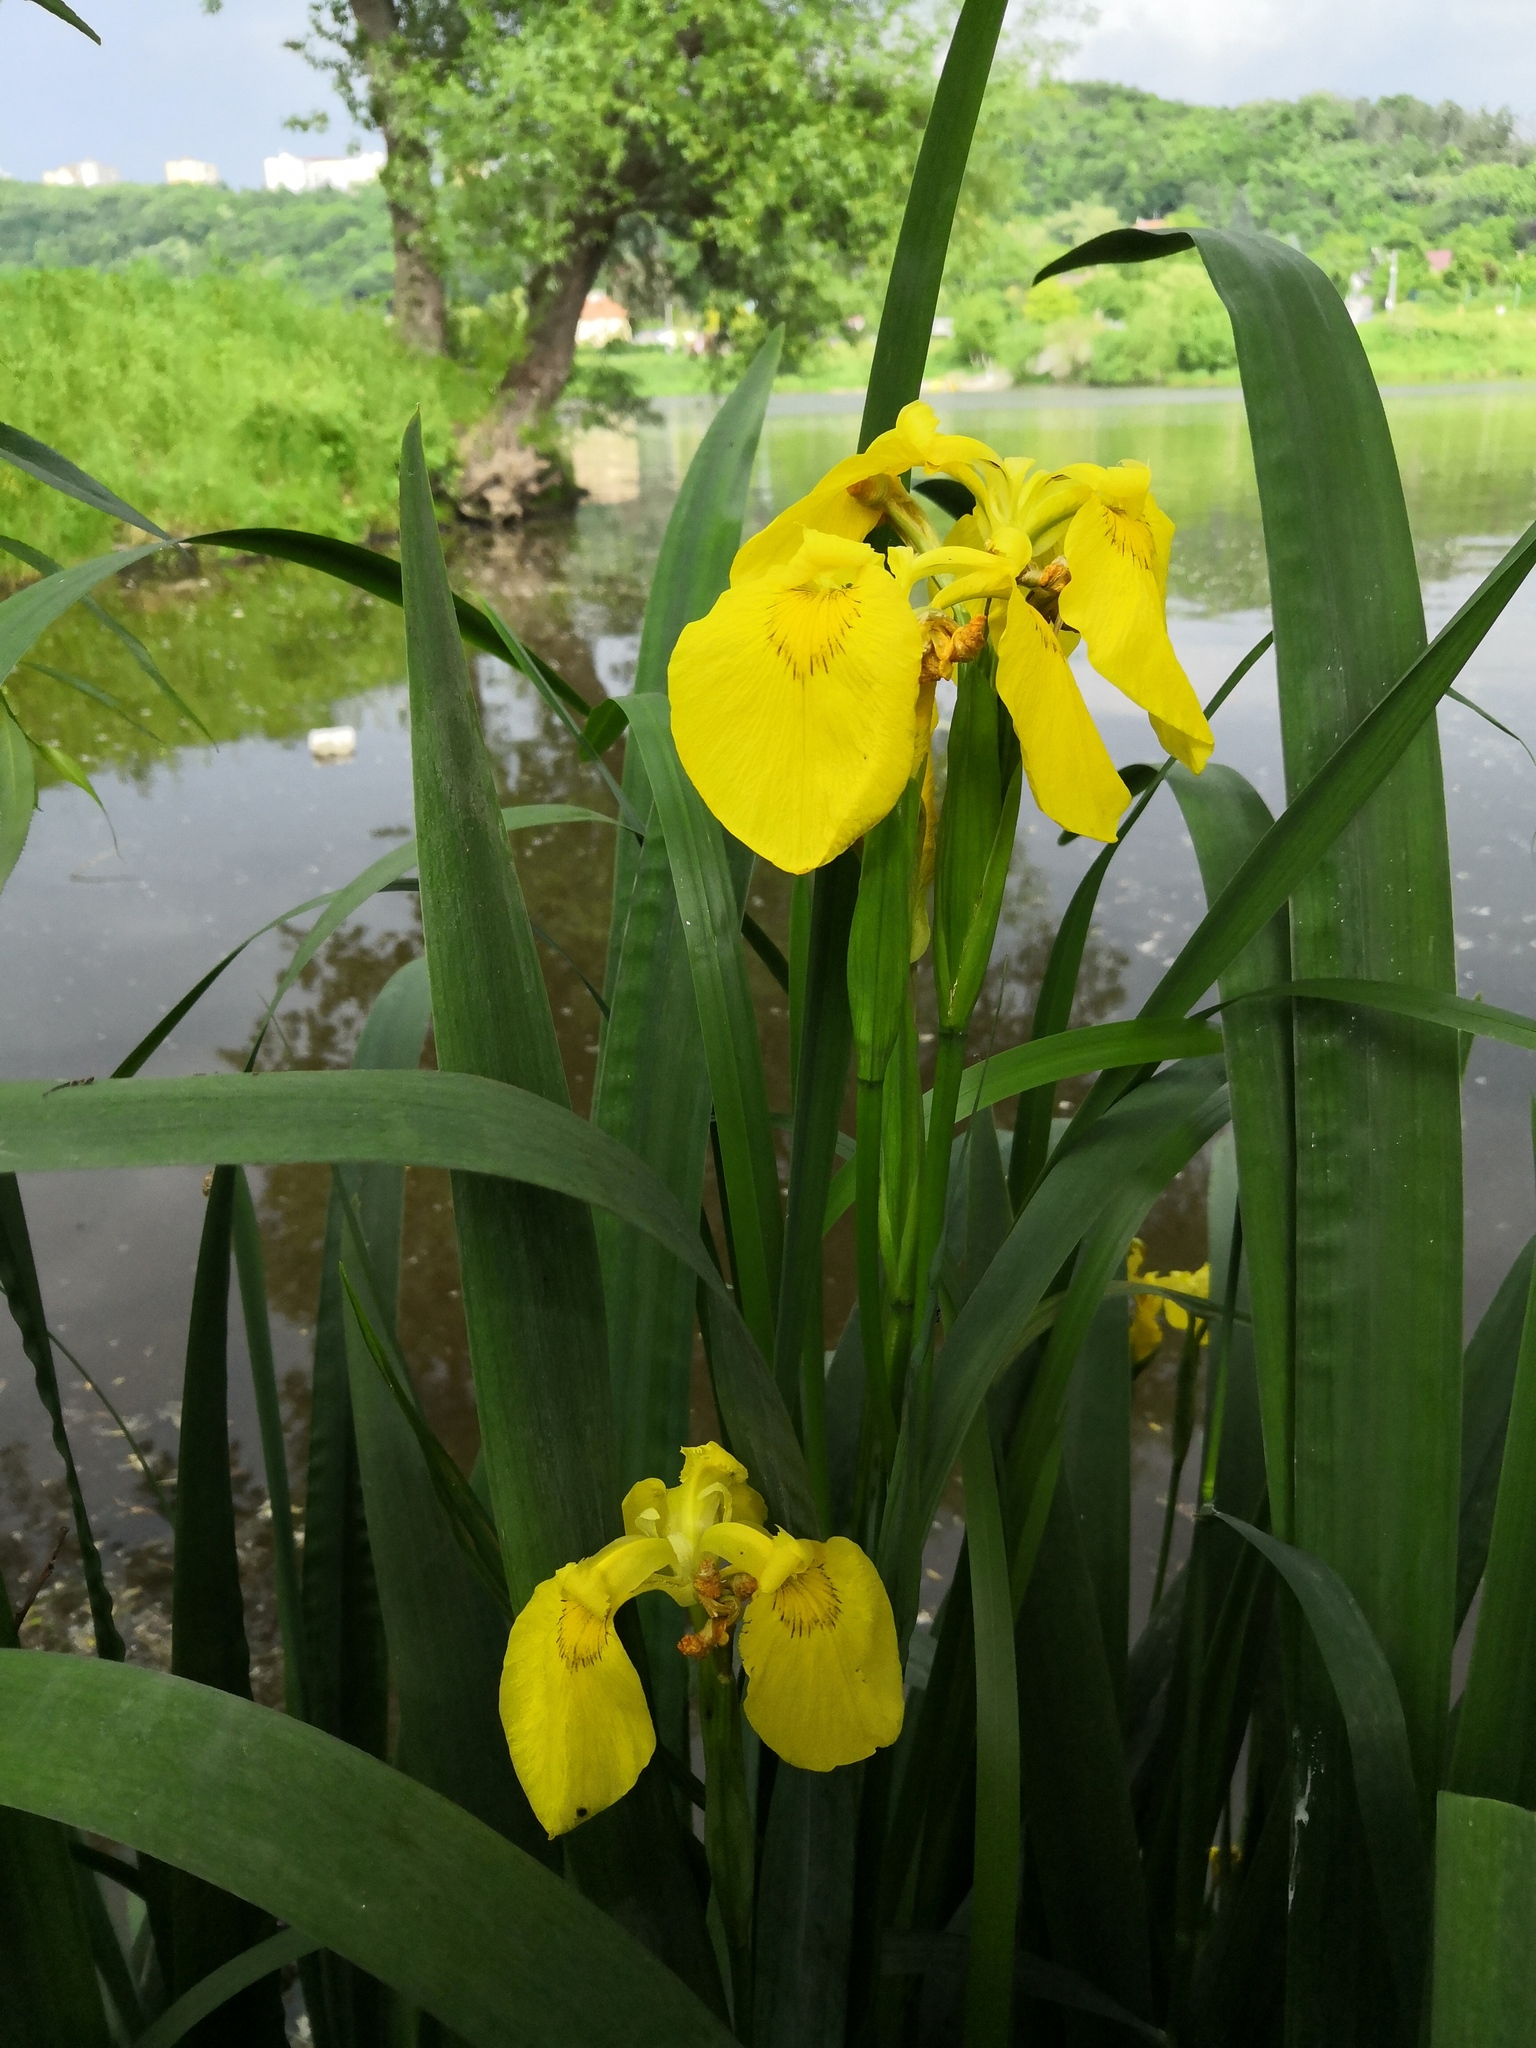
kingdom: Plantae
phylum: Tracheophyta
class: Liliopsida
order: Asparagales
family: Iridaceae
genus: Iris
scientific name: Iris pseudacorus
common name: Yellow flag
